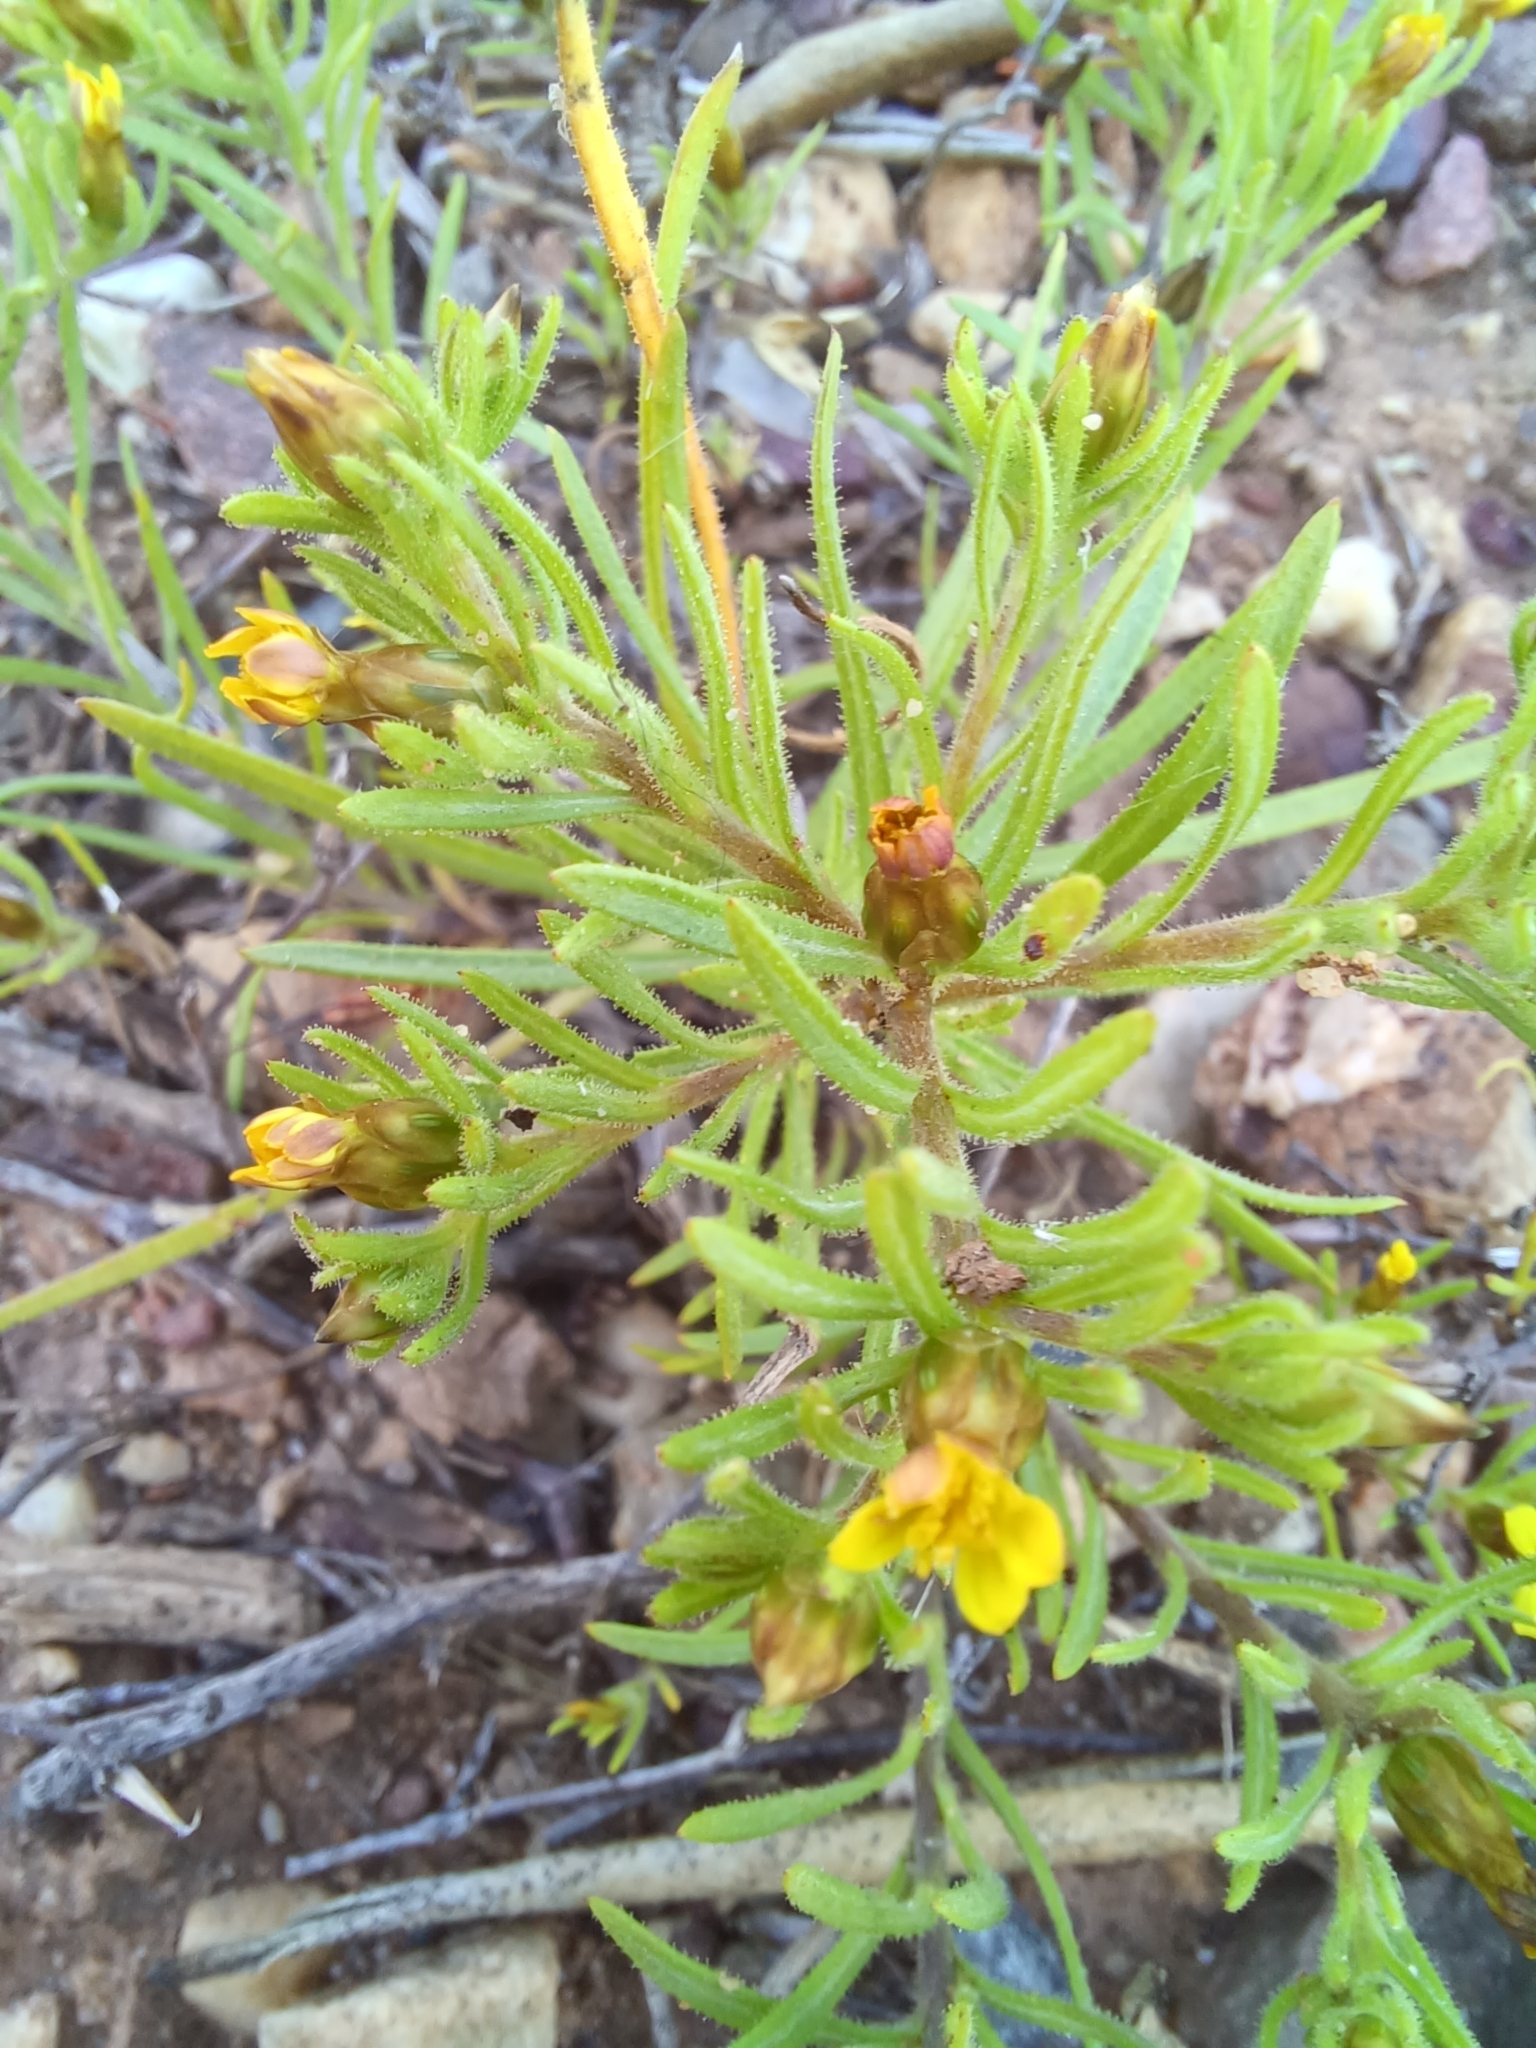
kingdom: Plantae
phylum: Tracheophyta
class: Magnoliopsida
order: Asterales
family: Asteraceae
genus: Rhynchopsidium
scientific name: Rhynchopsidium sessiliflorum
